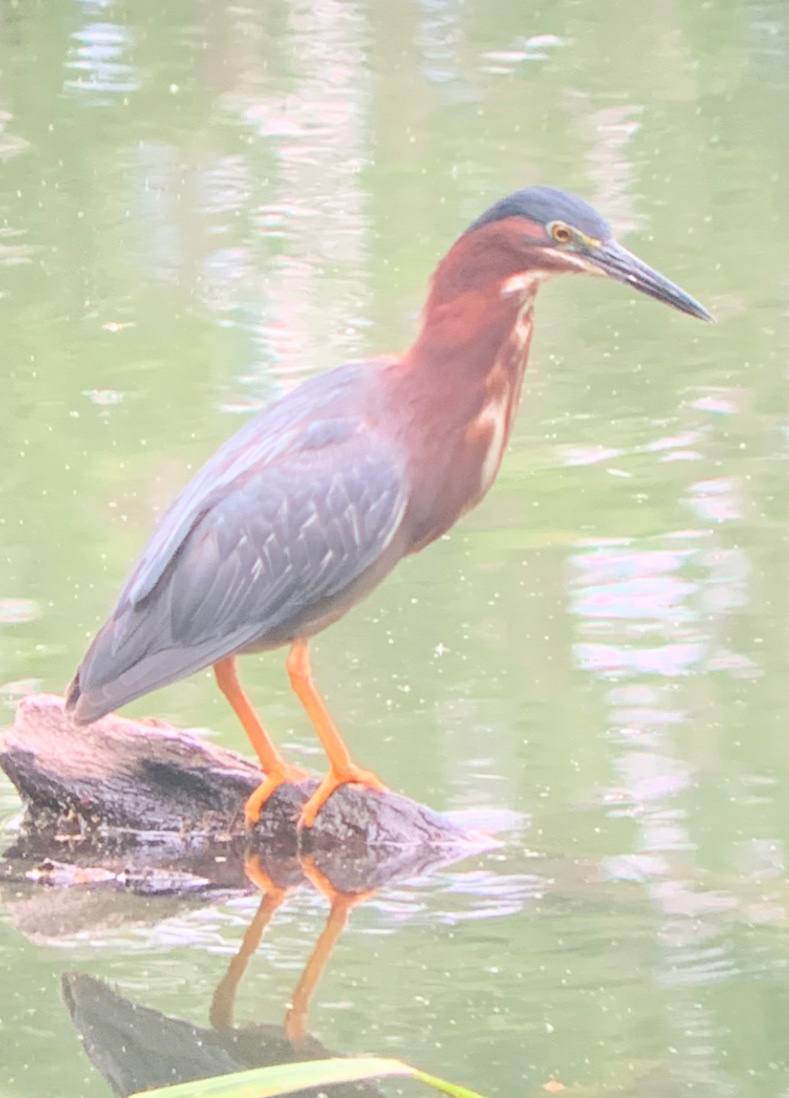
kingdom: Animalia
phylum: Chordata
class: Aves
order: Pelecaniformes
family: Ardeidae
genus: Butorides
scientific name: Butorides virescens
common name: Green heron
